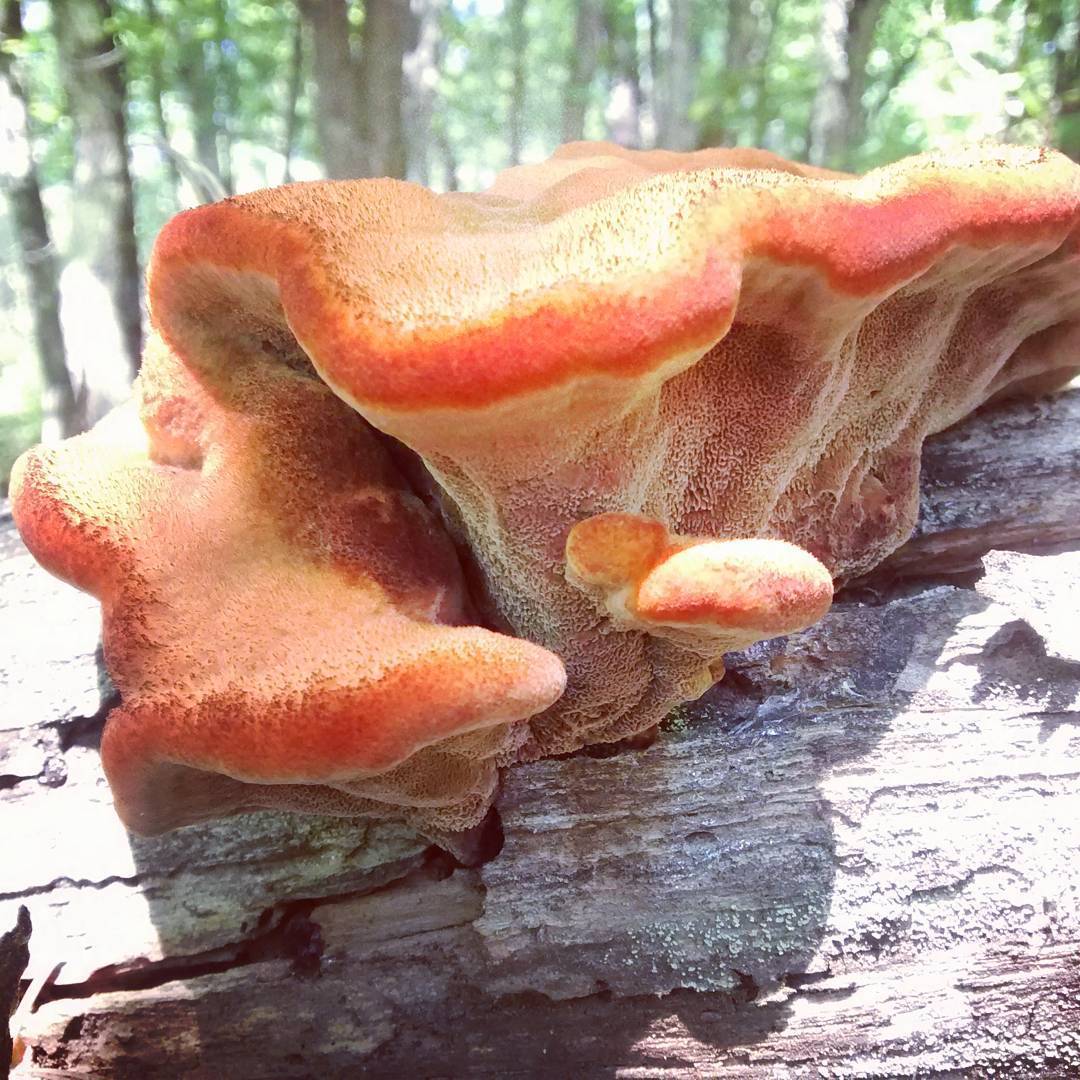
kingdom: Fungi
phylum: Basidiomycota
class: Agaricomycetes
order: Polyporales
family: Laetiporaceae
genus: Phaeolus
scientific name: Phaeolus schweinitzii
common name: Dyer's mazegill
